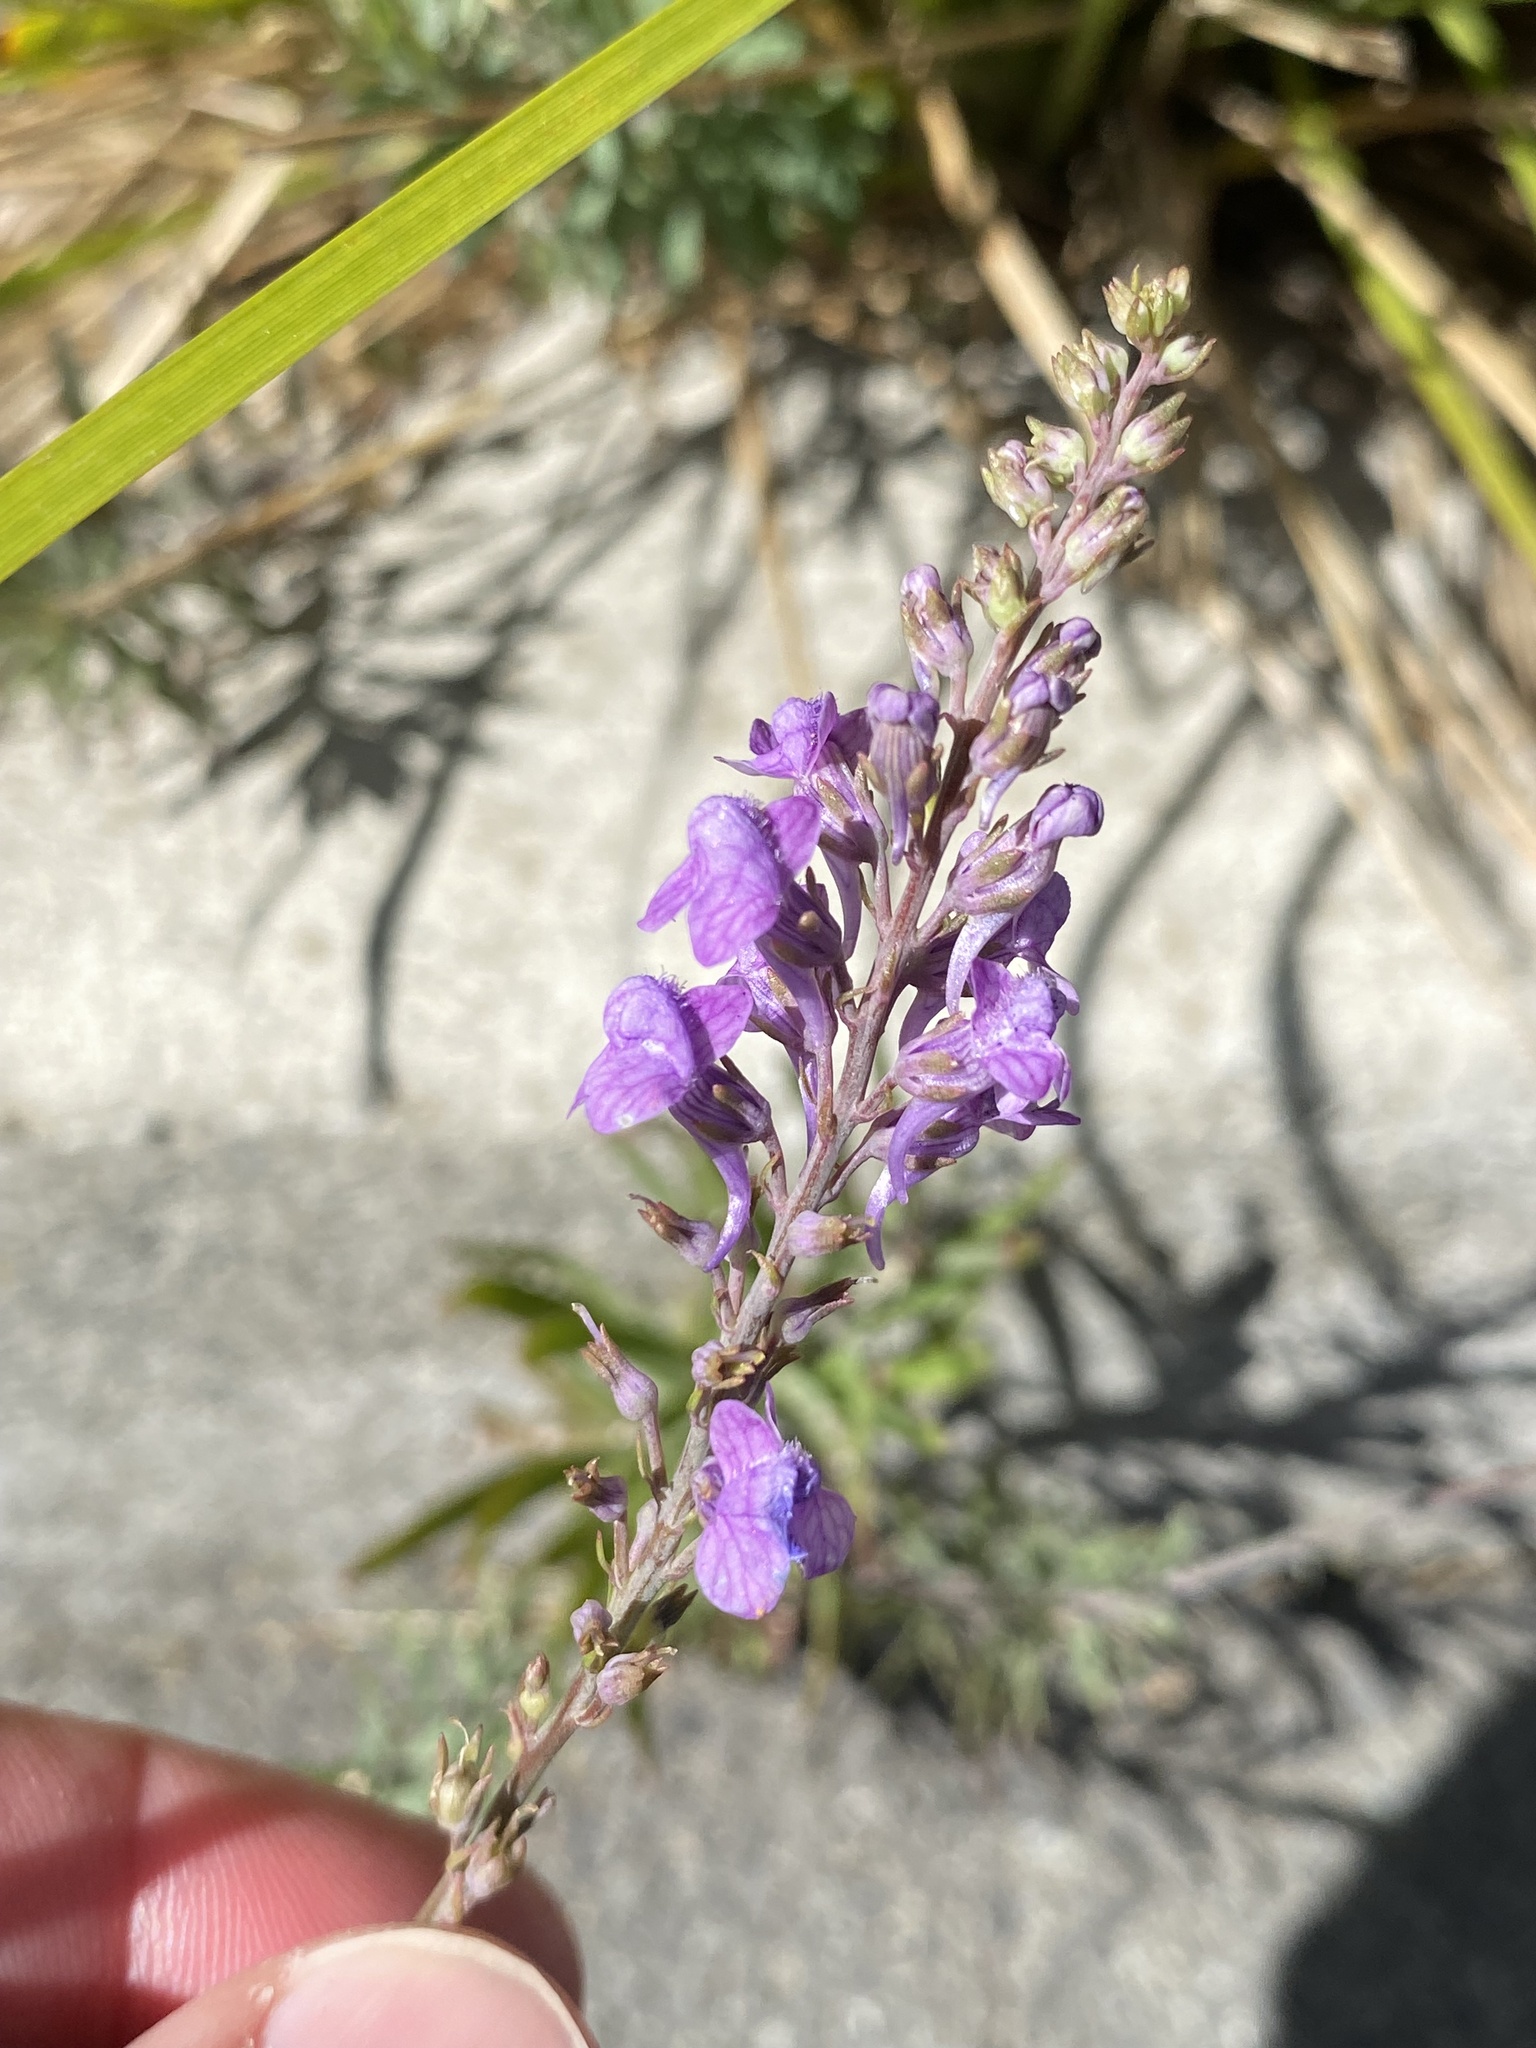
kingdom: Plantae
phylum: Tracheophyta
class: Magnoliopsida
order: Lamiales
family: Plantaginaceae
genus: Linaria
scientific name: Linaria purpurea
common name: Purple toadflax
